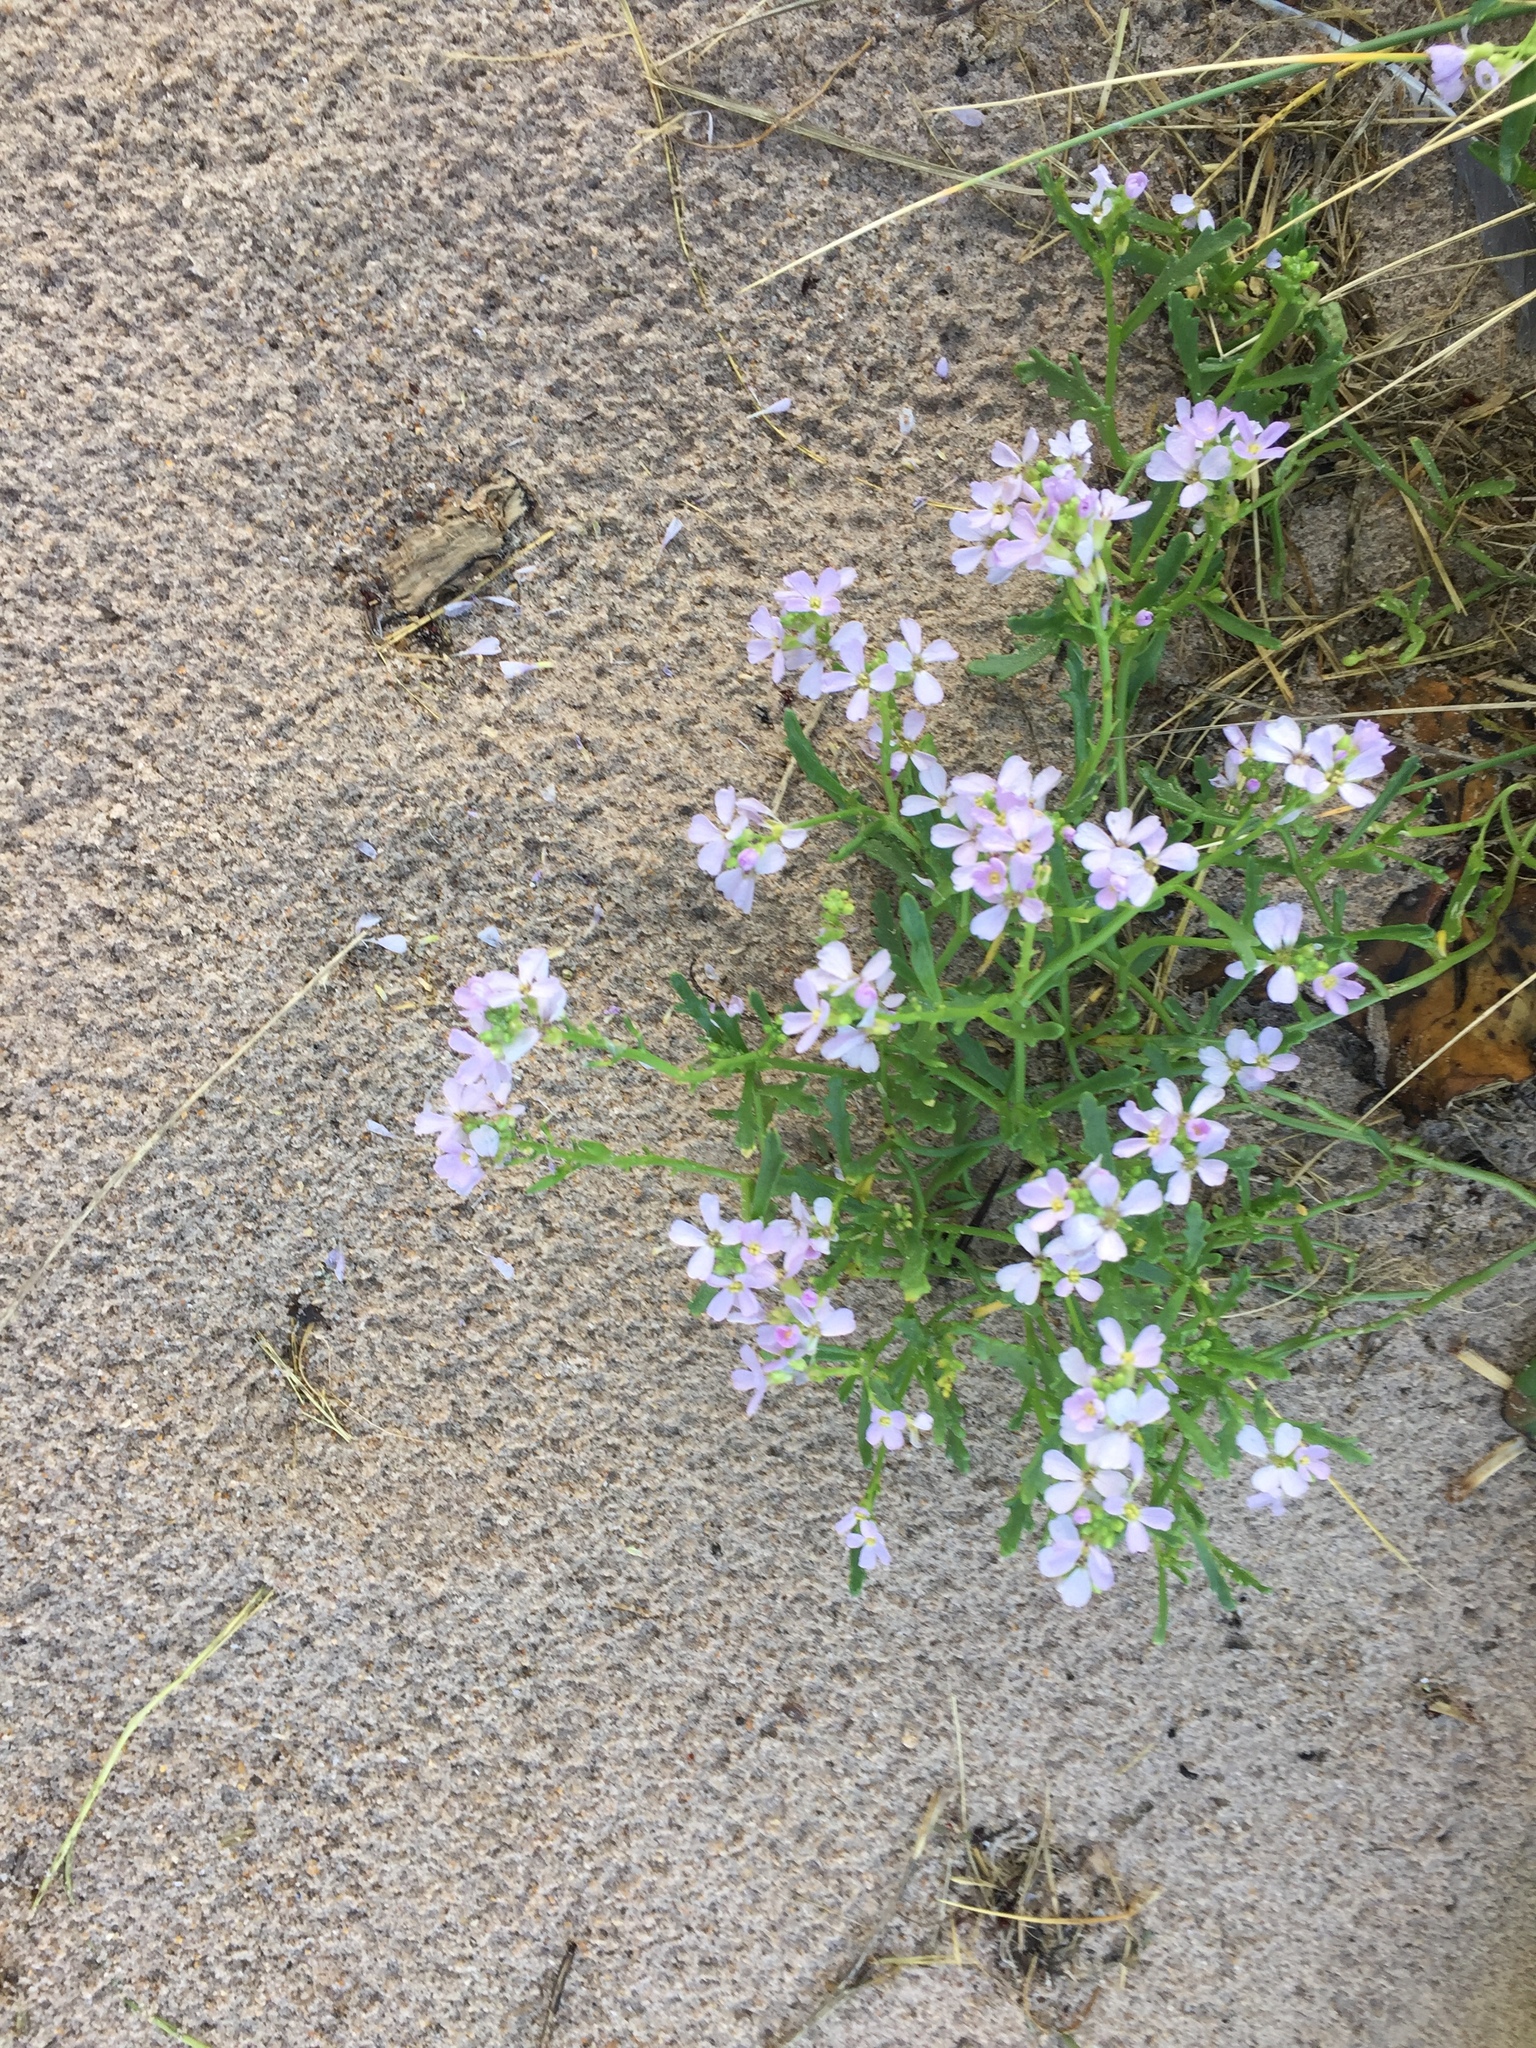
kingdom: Plantae
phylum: Tracheophyta
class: Magnoliopsida
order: Brassicales
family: Brassicaceae
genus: Cakile
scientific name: Cakile maritima
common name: Sea rocket
